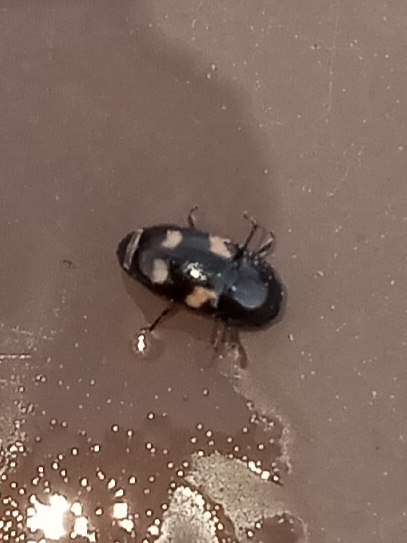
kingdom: Animalia
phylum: Arthropoda
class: Insecta
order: Coleoptera
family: Nitidulidae
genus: Glischrochilus
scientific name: Glischrochilus quadrisignatus
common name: Picnic beetle
